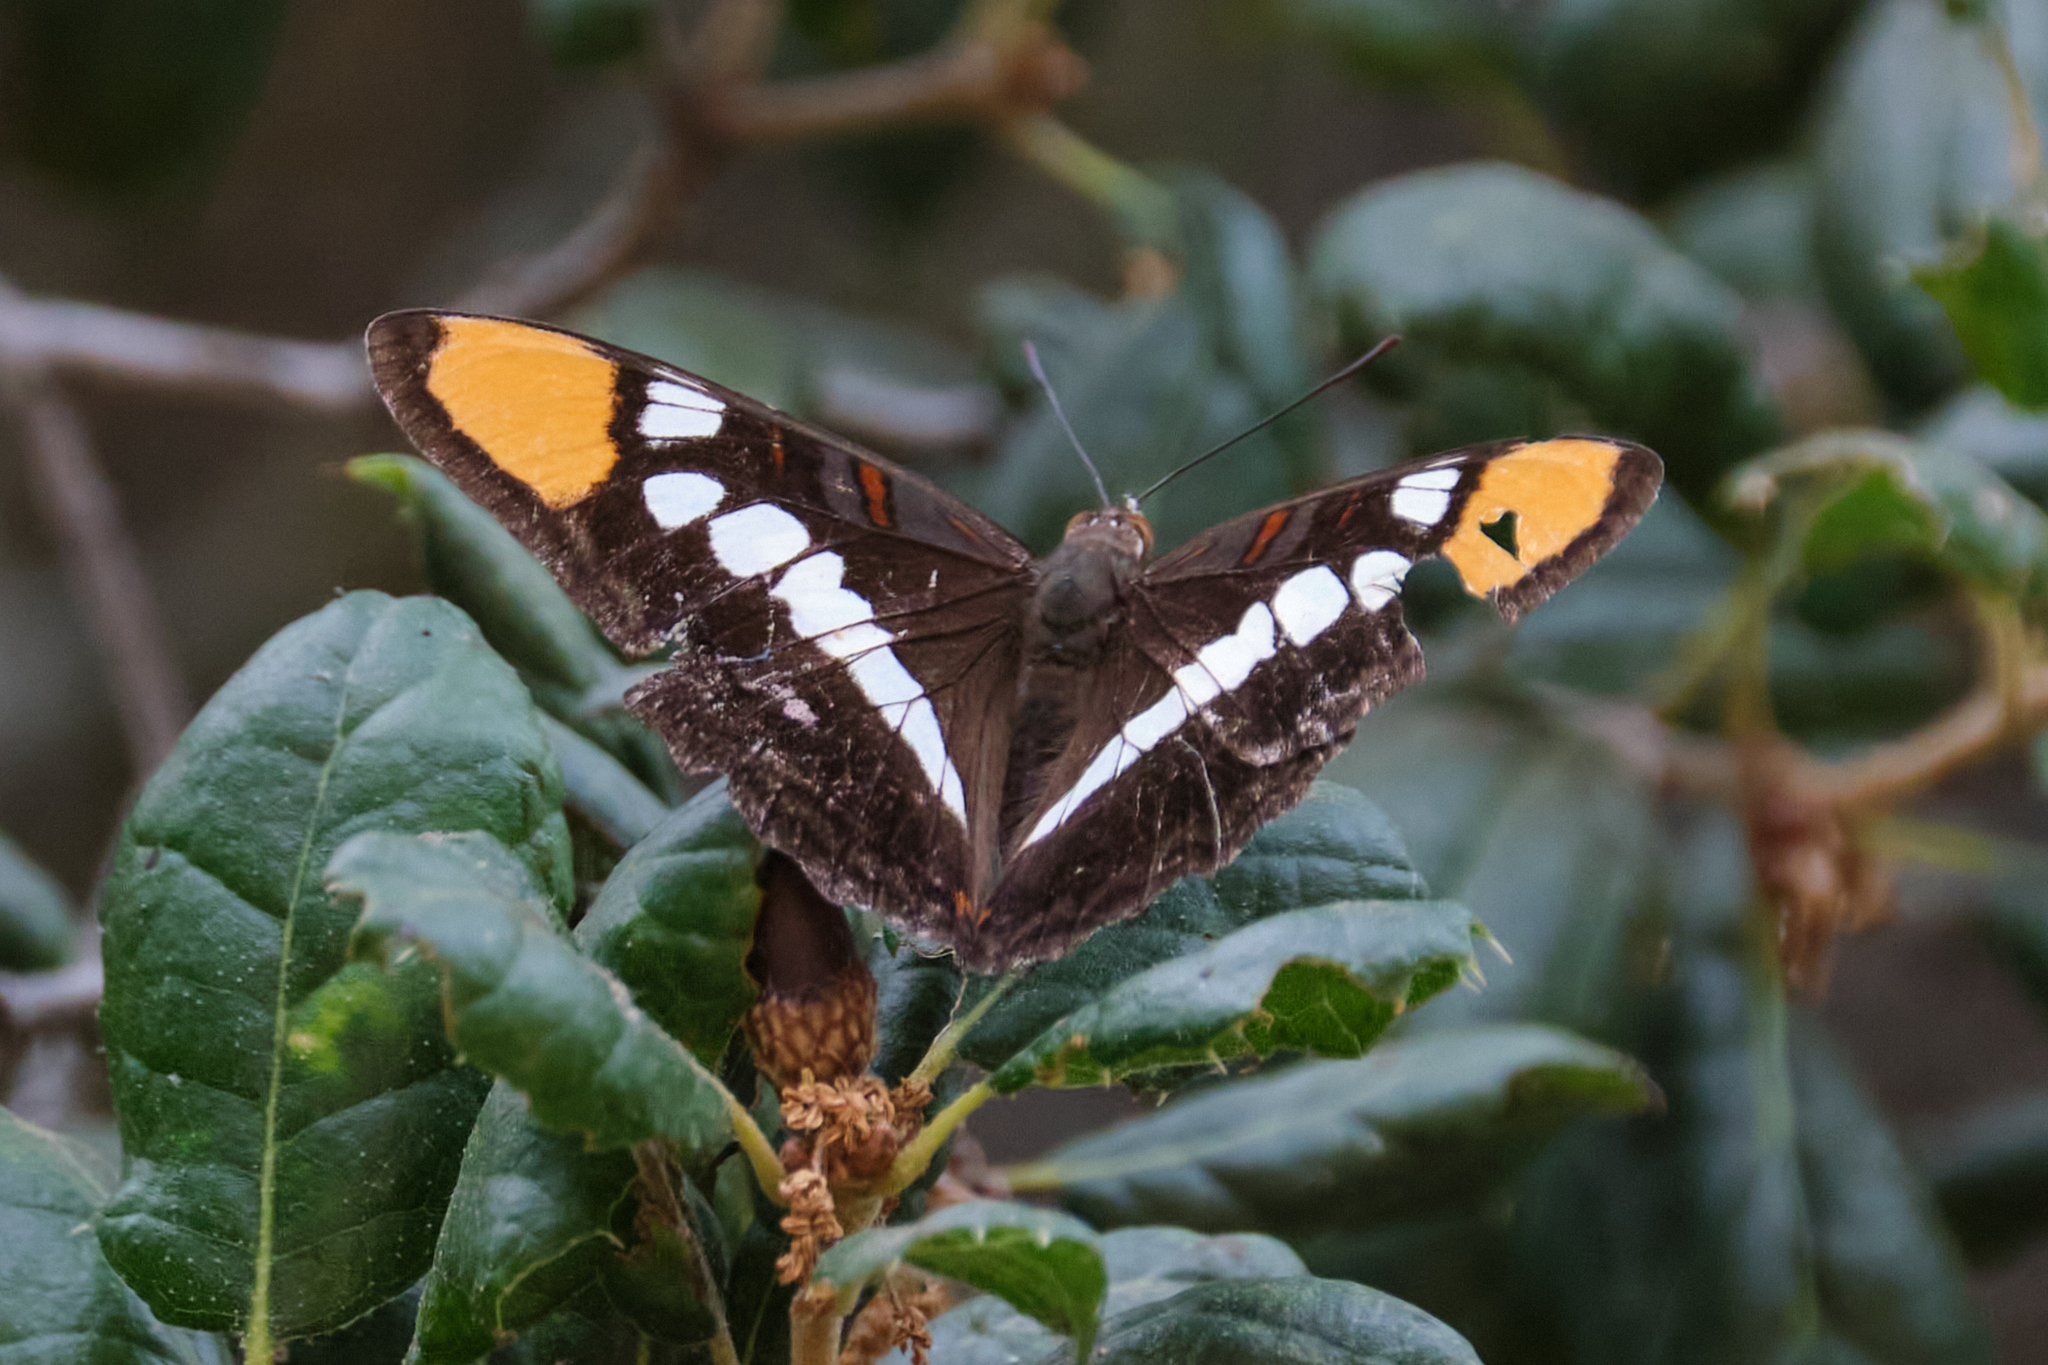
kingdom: Animalia
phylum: Arthropoda
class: Insecta
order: Lepidoptera
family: Nymphalidae
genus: Limenitis
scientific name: Limenitis bredowii
